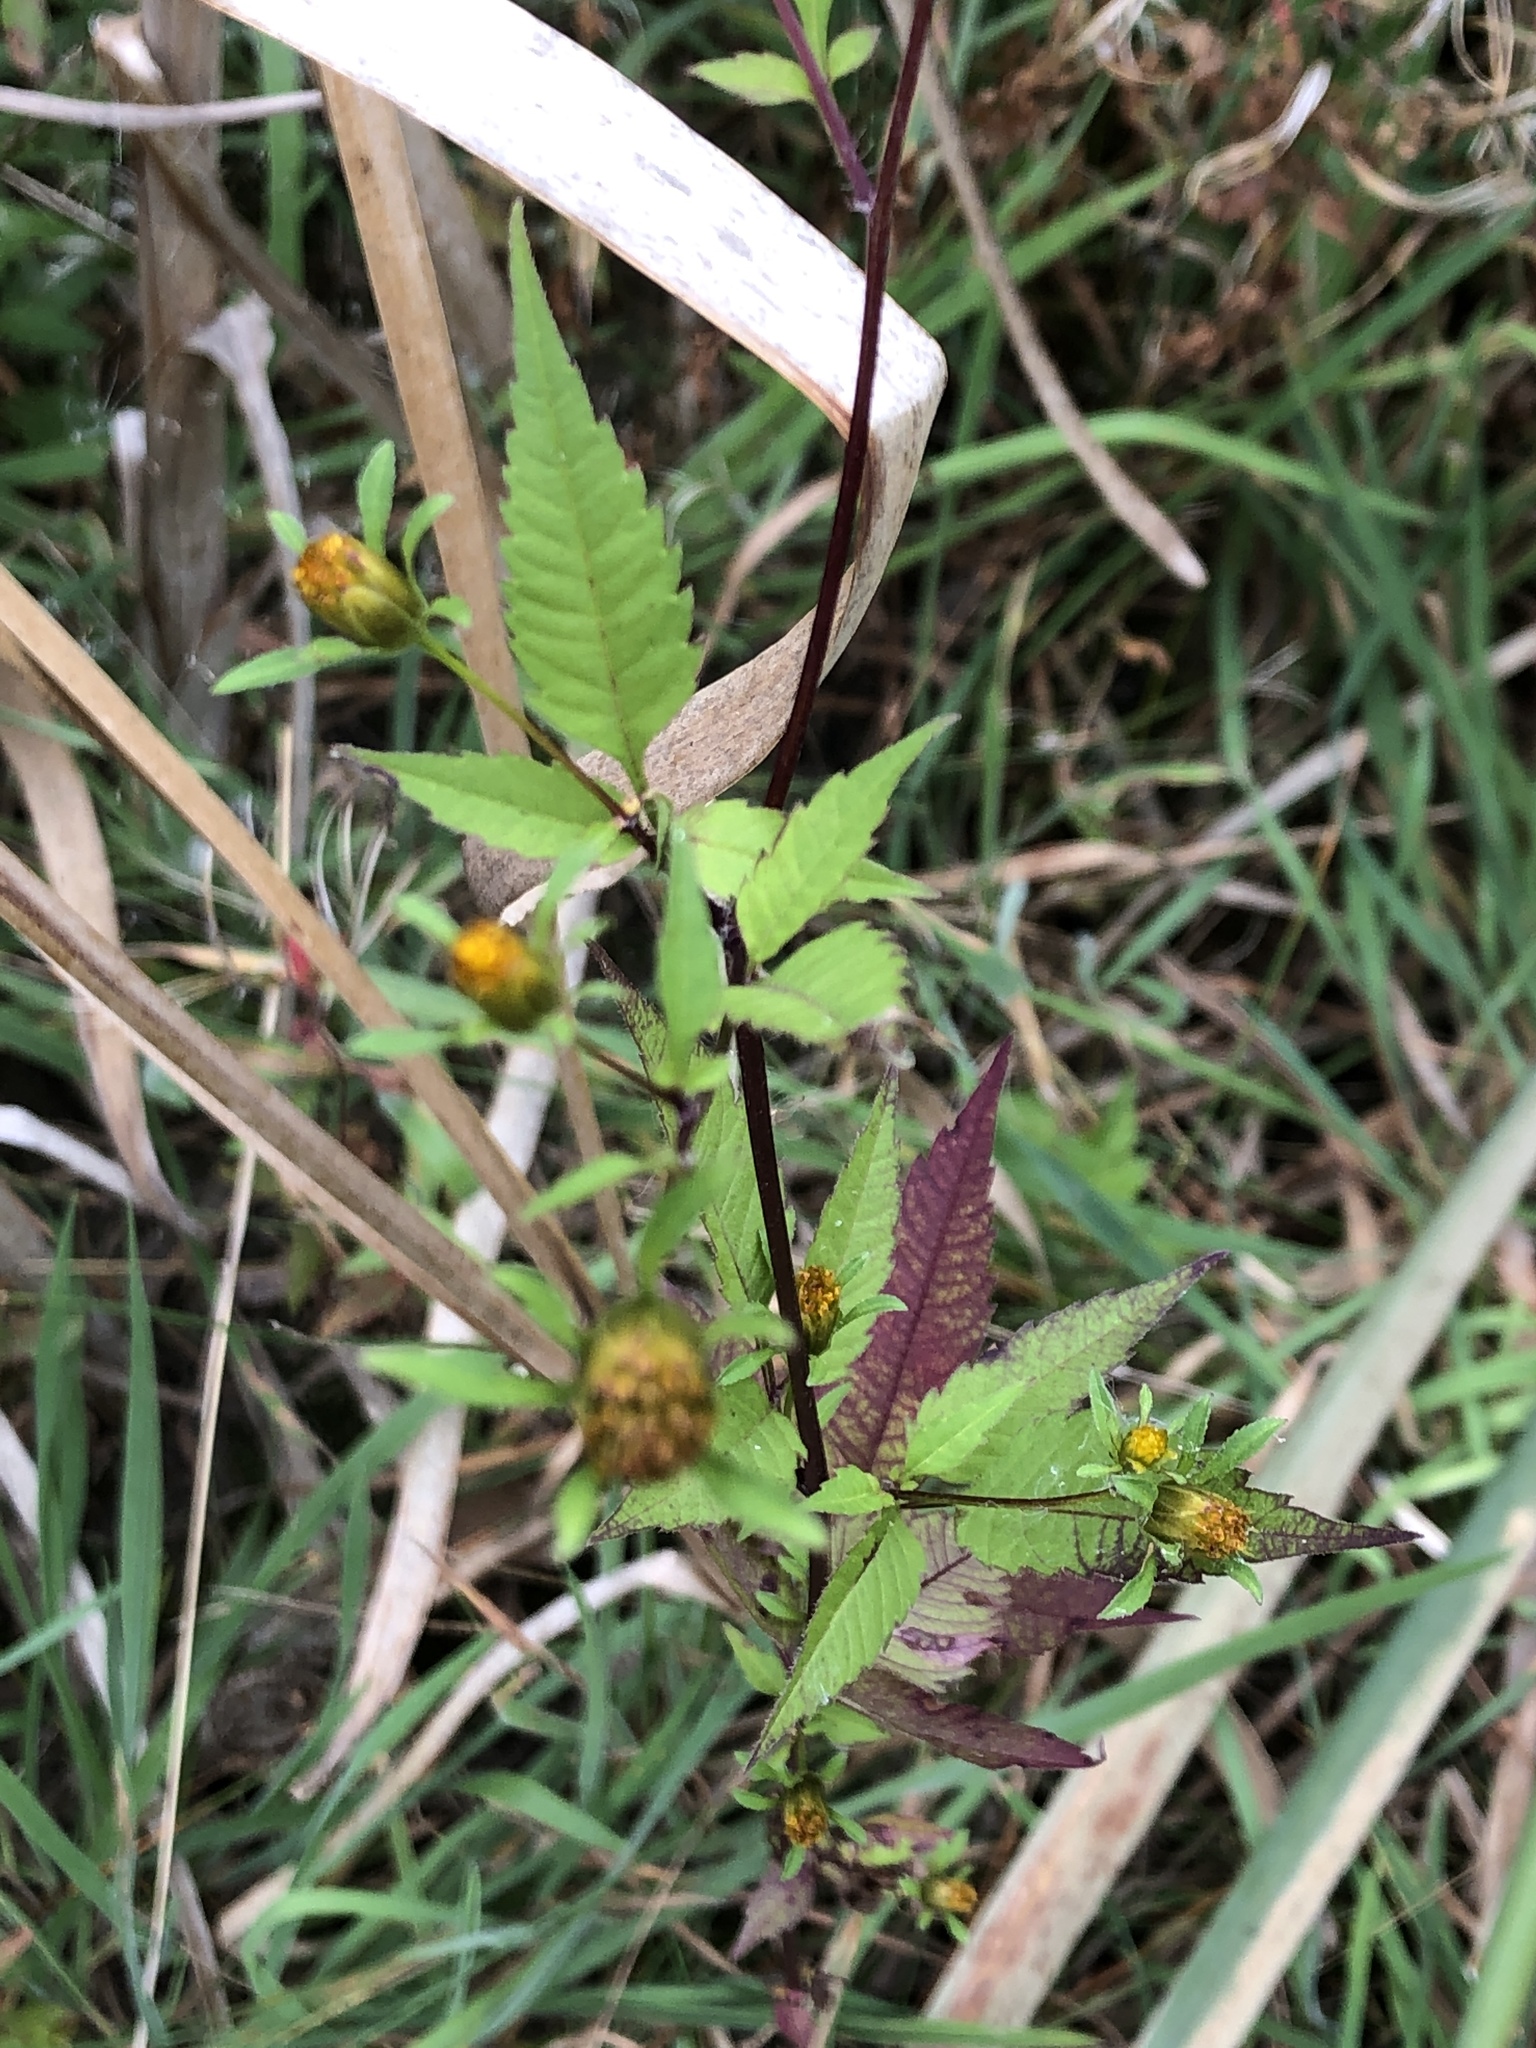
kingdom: Plantae
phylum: Tracheophyta
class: Magnoliopsida
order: Asterales
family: Asteraceae
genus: Bidens
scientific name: Bidens frondosa
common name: Beggarticks
